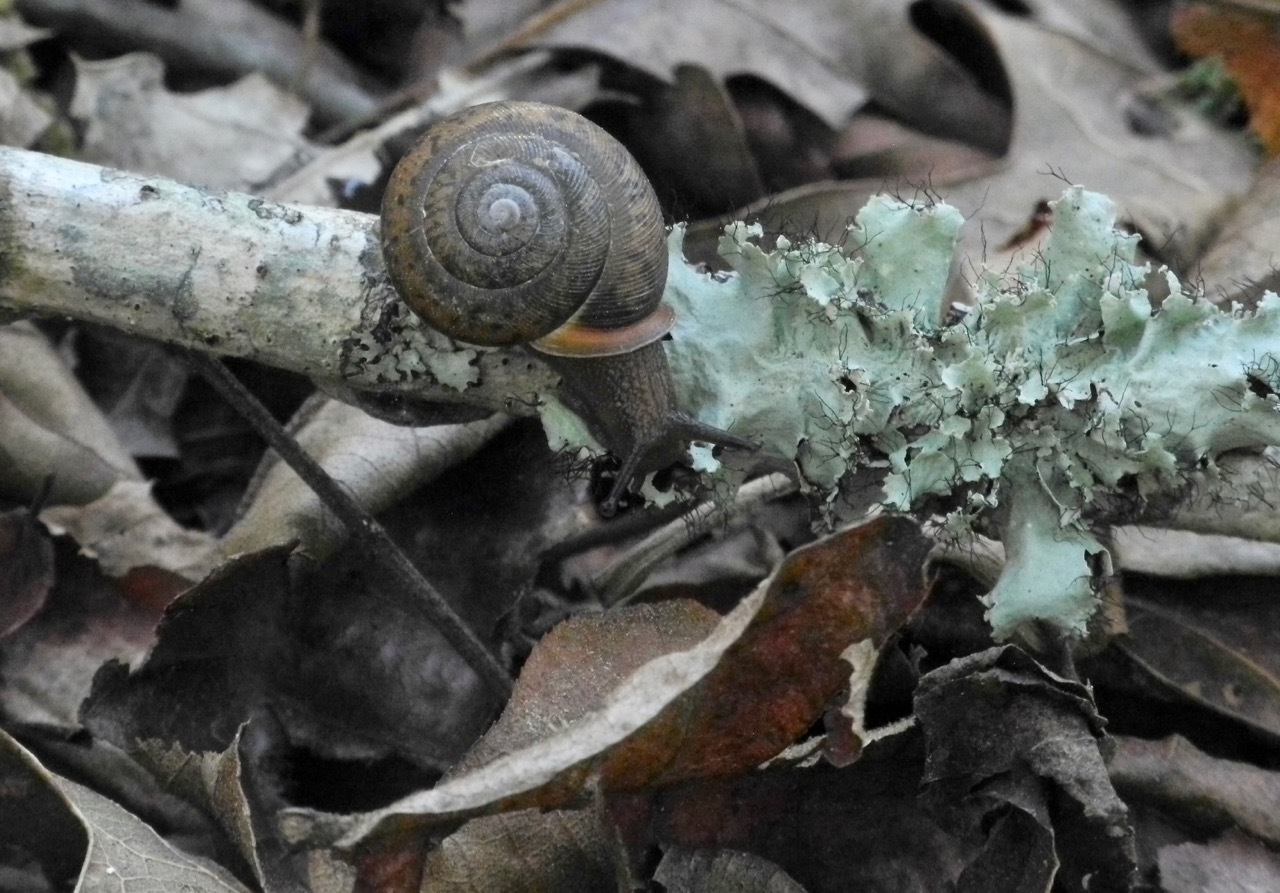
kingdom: Animalia
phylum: Mollusca
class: Gastropoda
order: Stylommatophora
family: Polygyridae
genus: Neohelix
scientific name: Neohelix major
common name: Southeastern whitelip
